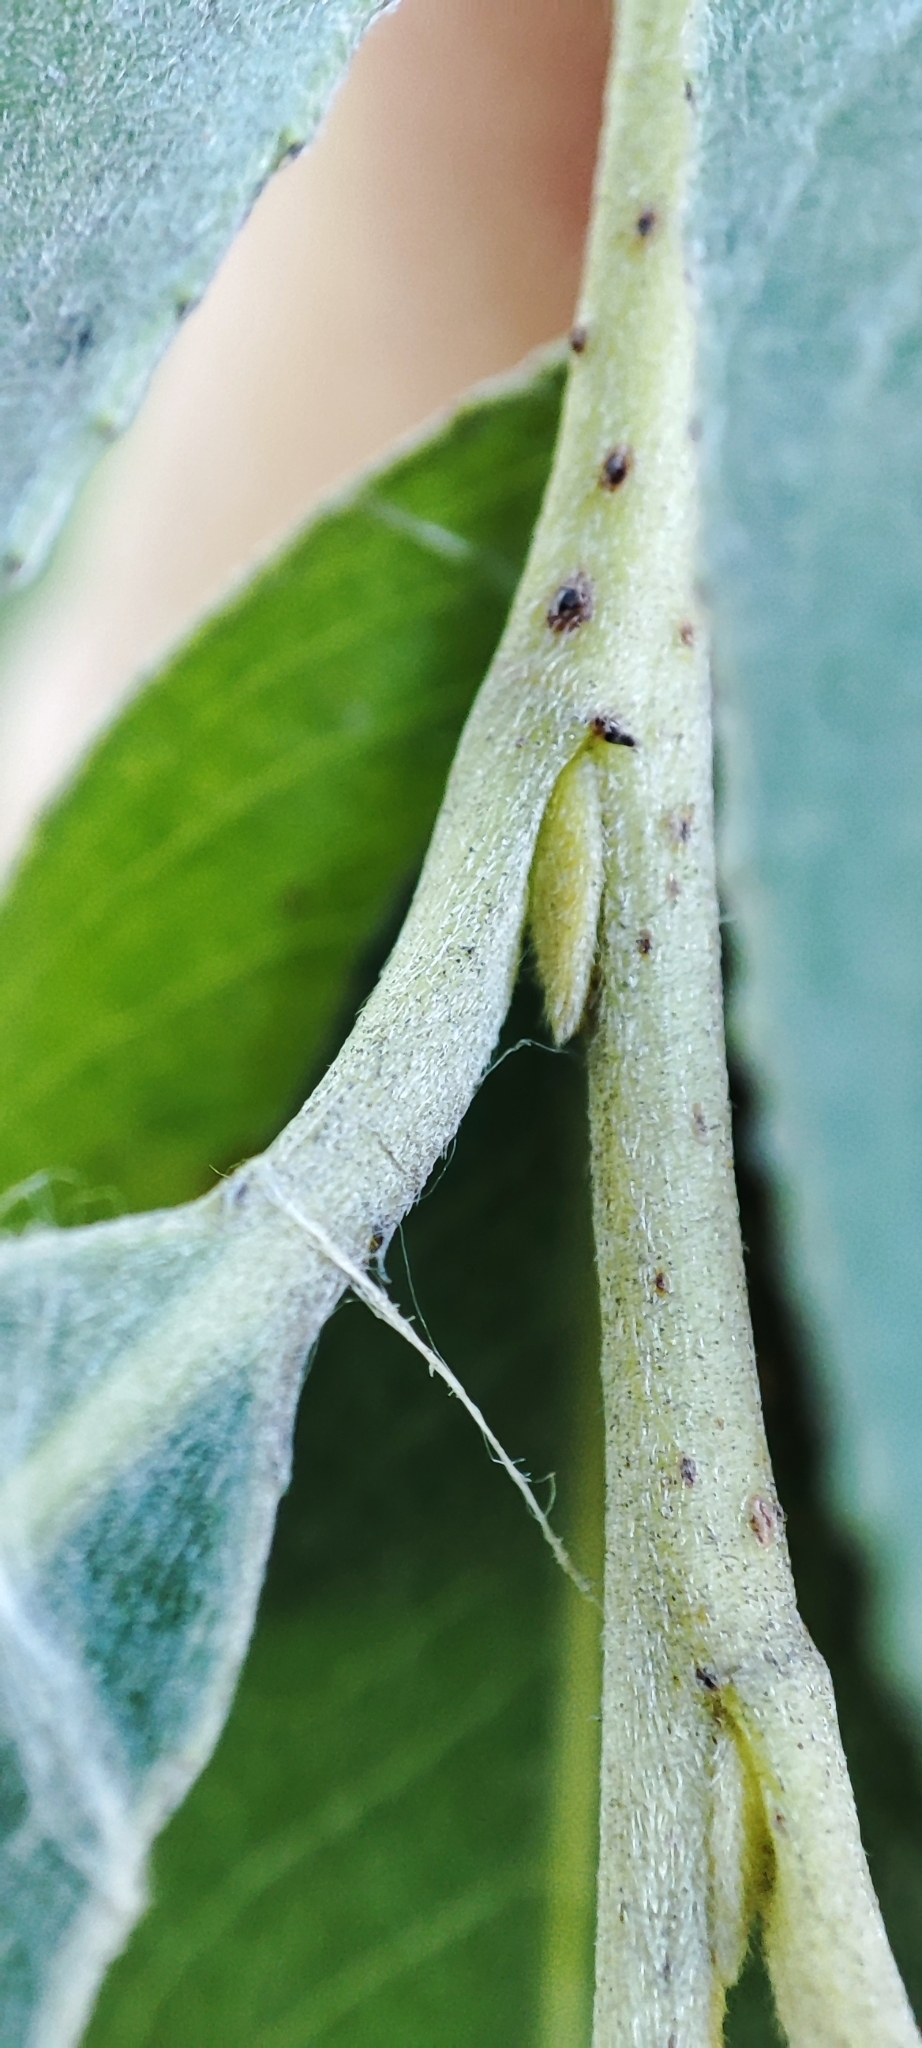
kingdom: Plantae
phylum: Tracheophyta
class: Magnoliopsida
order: Malpighiales
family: Salicaceae
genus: Salix
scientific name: Salix alba
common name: White willow
